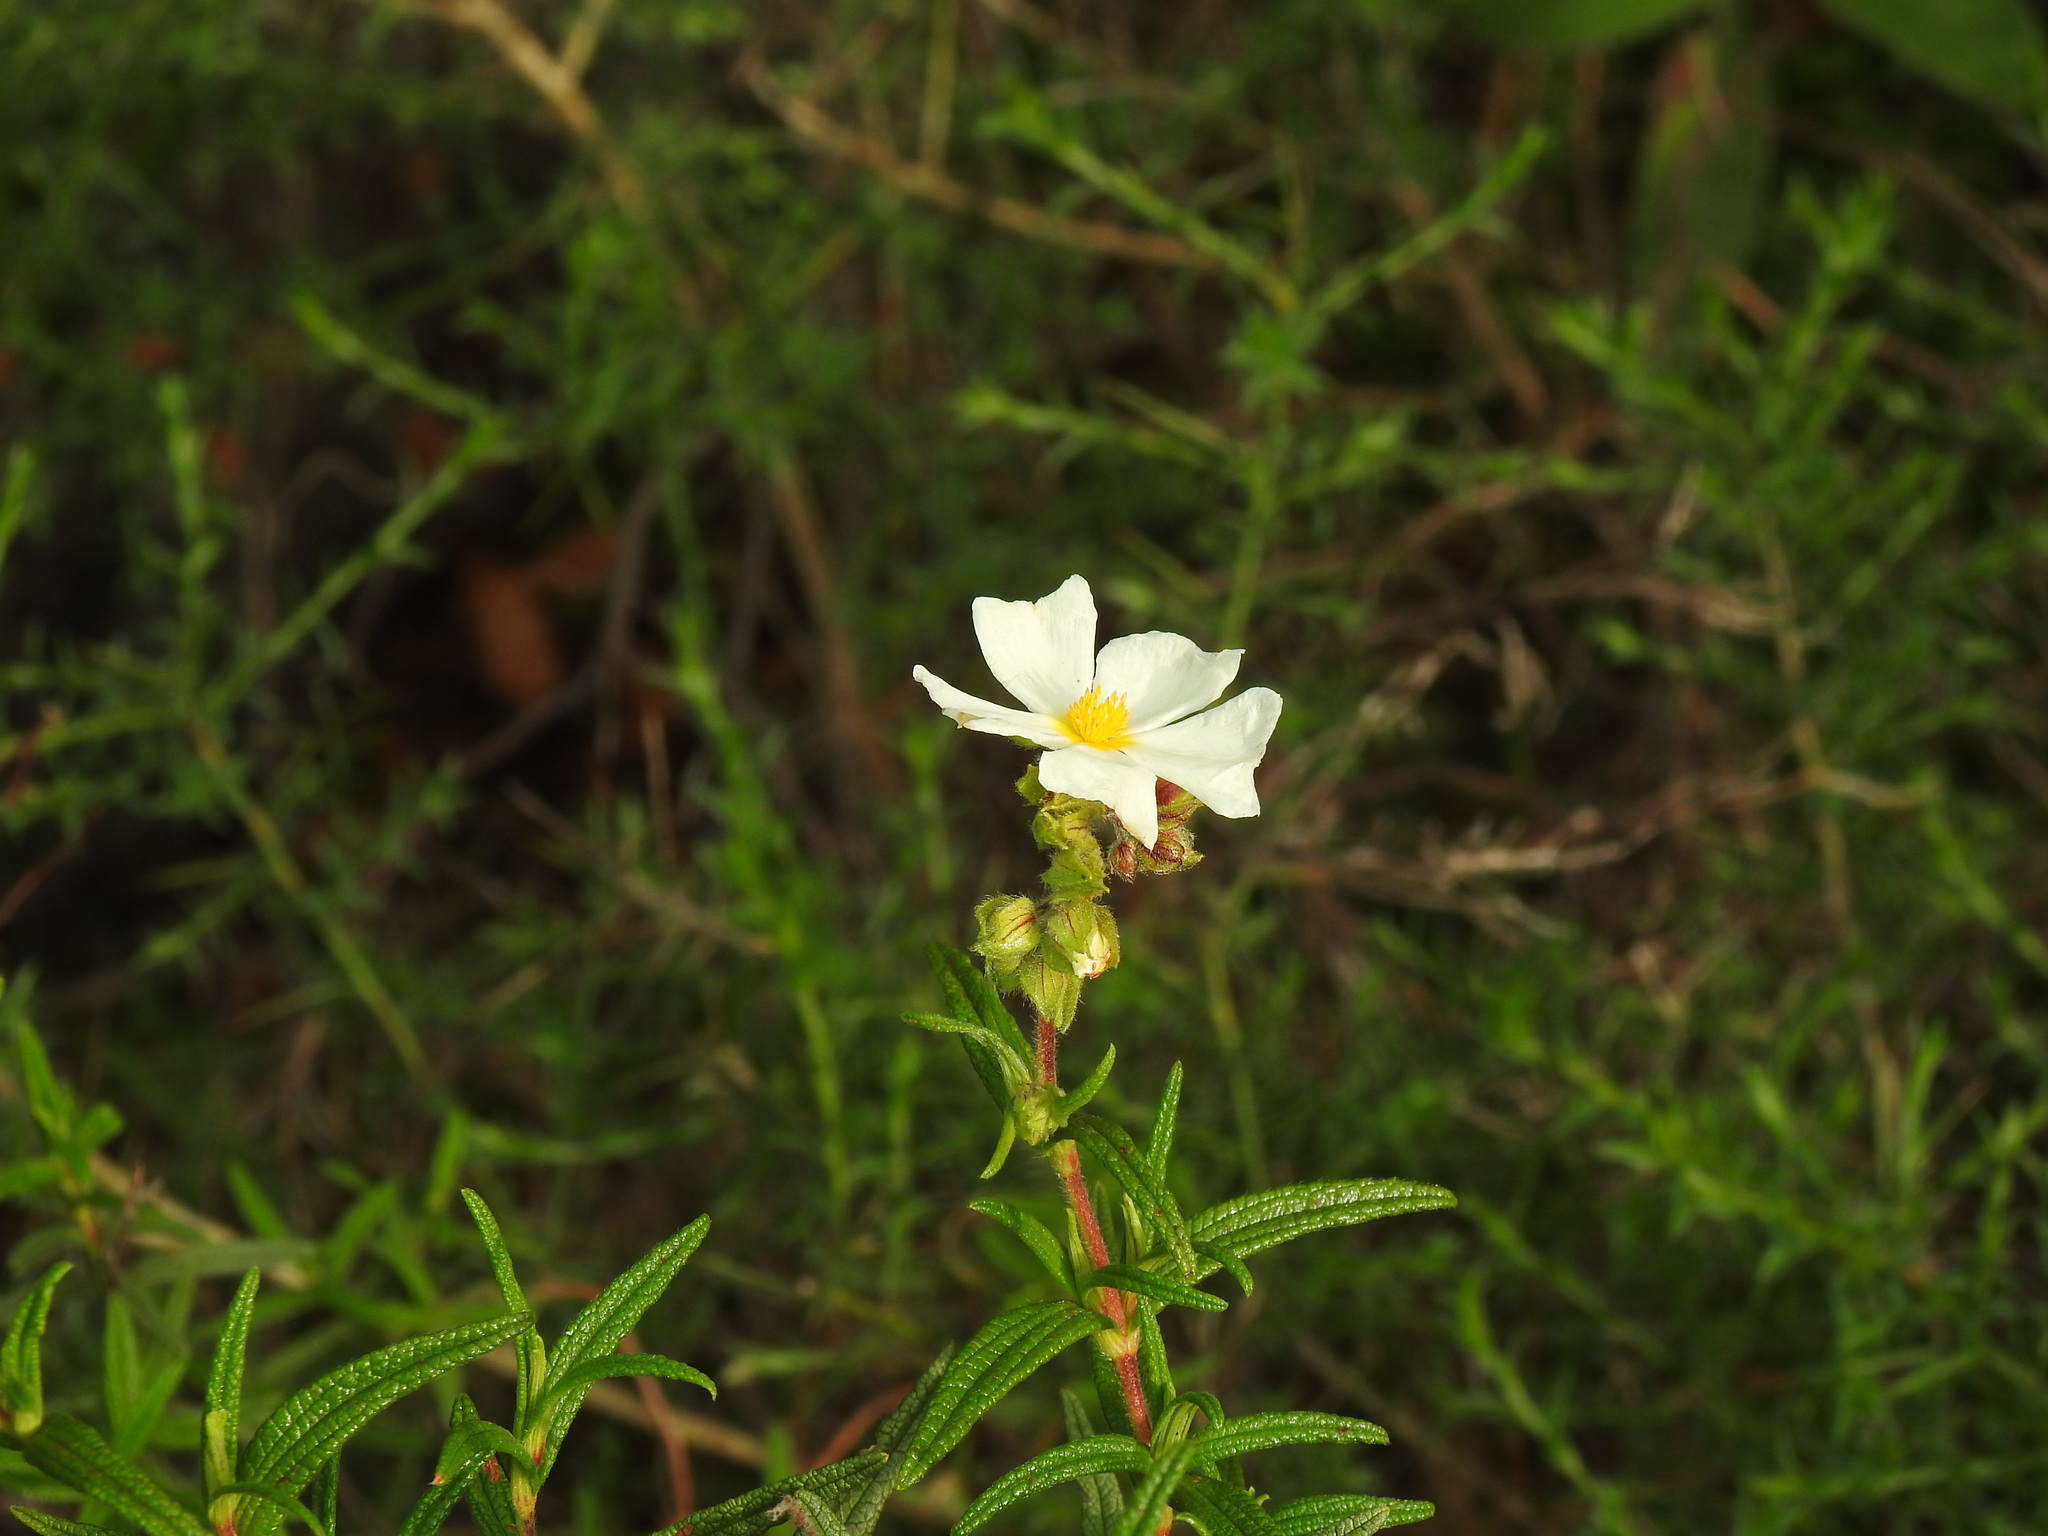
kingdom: Plantae
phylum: Tracheophyta
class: Magnoliopsida
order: Malvales
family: Cistaceae
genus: Cistus
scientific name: Cistus monspeliensis
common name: Montpelier cistus
